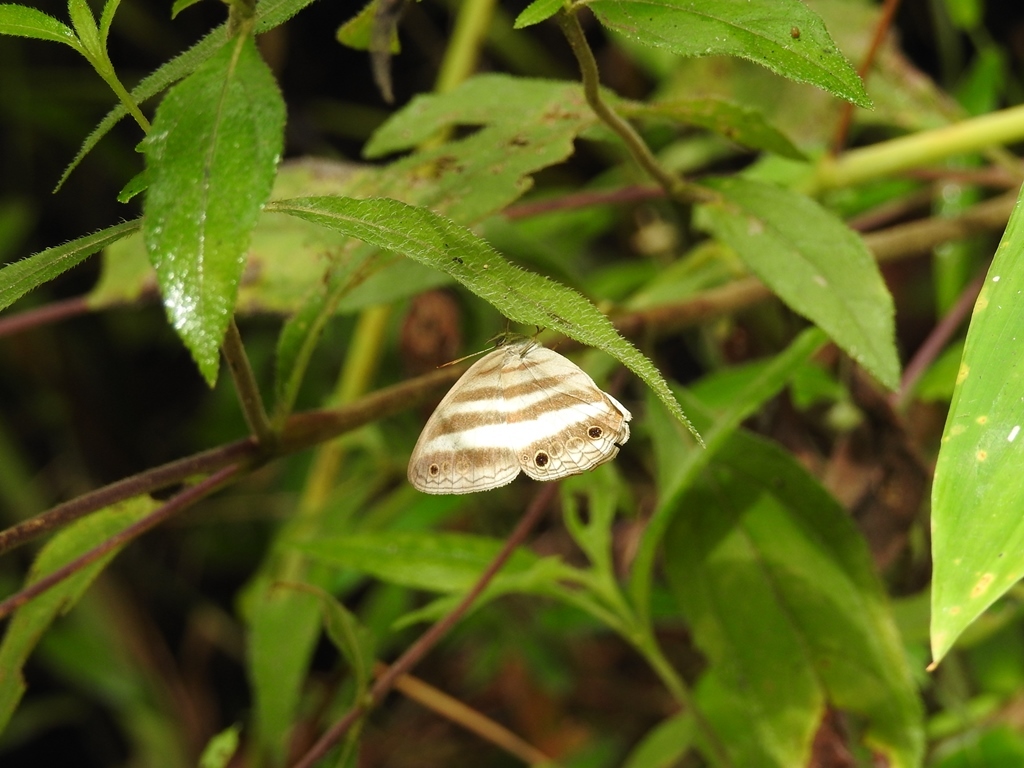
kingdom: Animalia
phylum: Arthropoda
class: Insecta
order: Lepidoptera
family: Nymphalidae
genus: Pareuptychia
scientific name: Pareuptychia hesione
